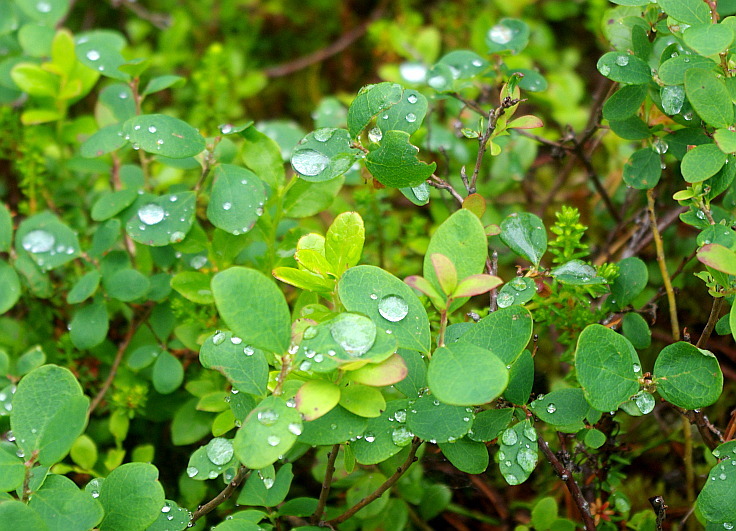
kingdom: Plantae
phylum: Tracheophyta
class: Magnoliopsida
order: Ericales
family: Ericaceae
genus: Vaccinium
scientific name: Vaccinium uliginosum
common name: Bog bilberry
